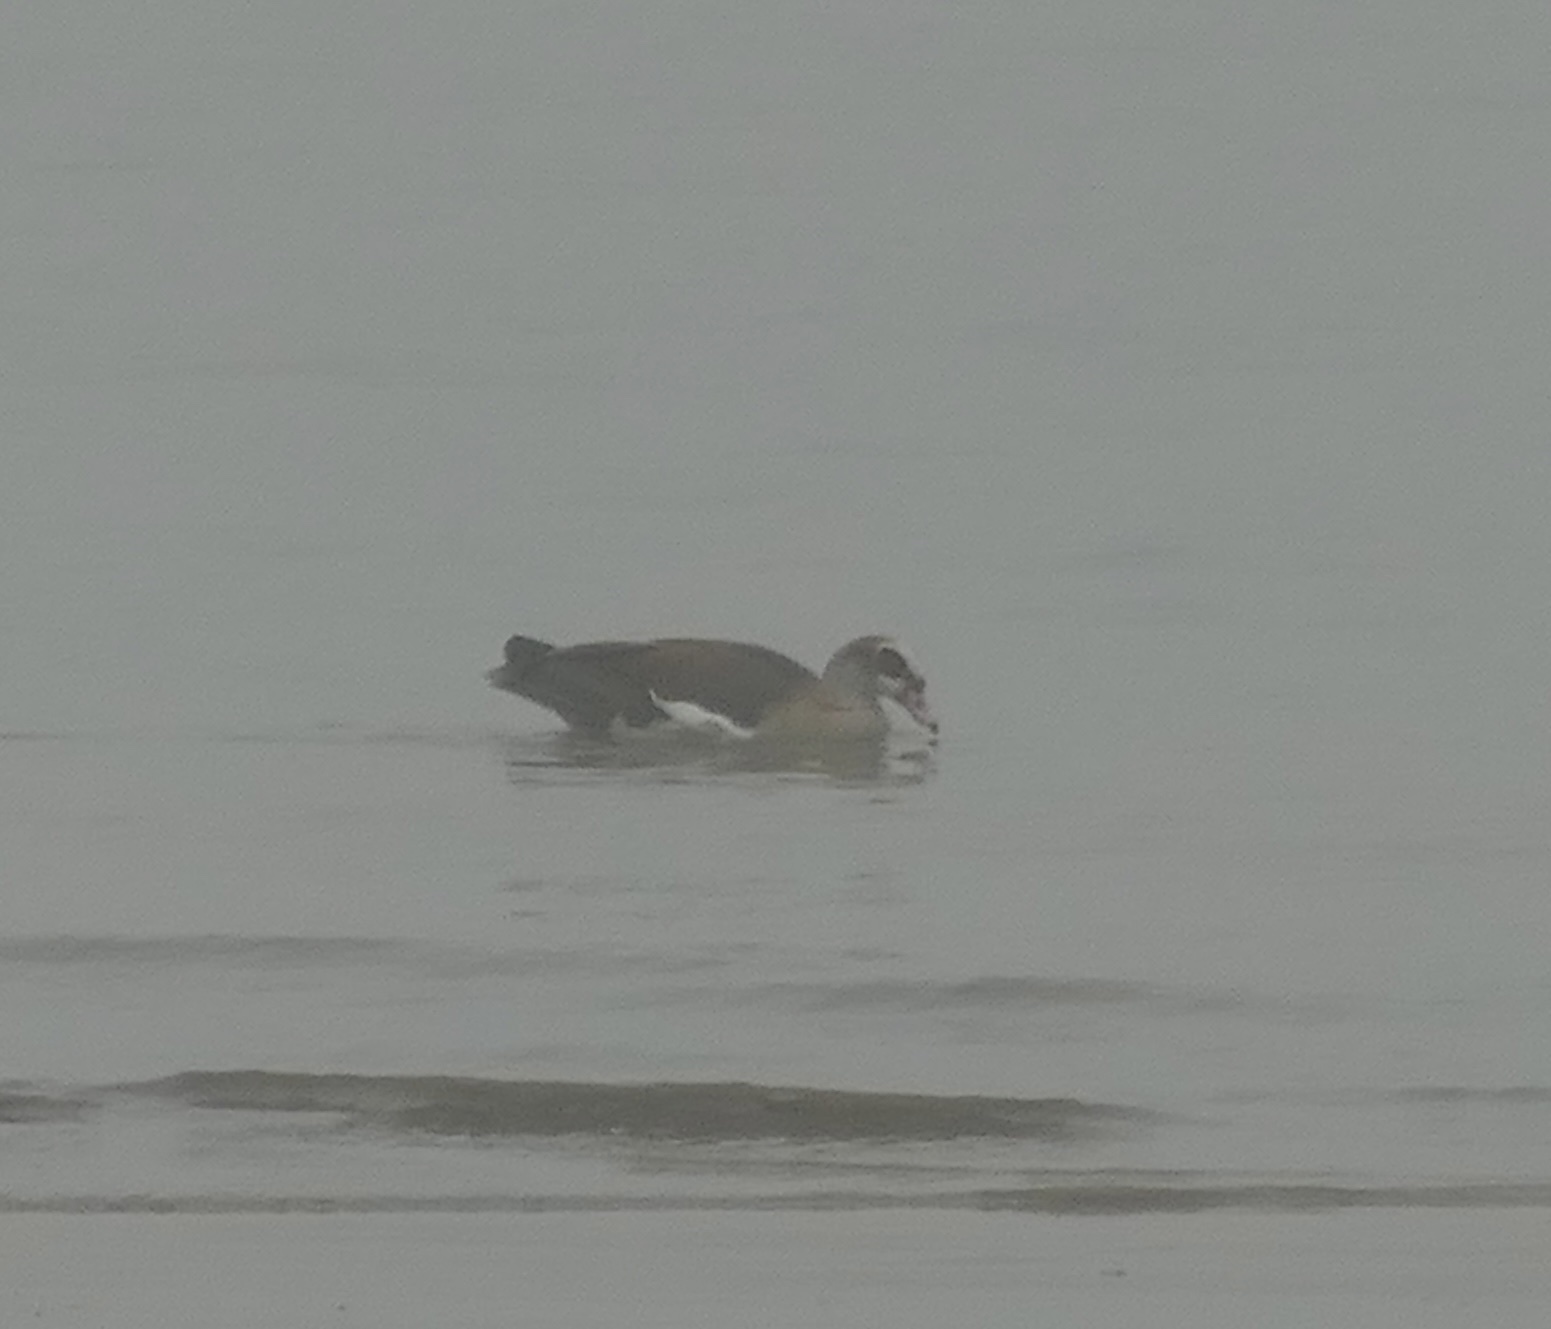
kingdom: Animalia
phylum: Chordata
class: Aves
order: Anseriformes
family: Anatidae
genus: Alopochen
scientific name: Alopochen aegyptiaca
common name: Egyptian goose
